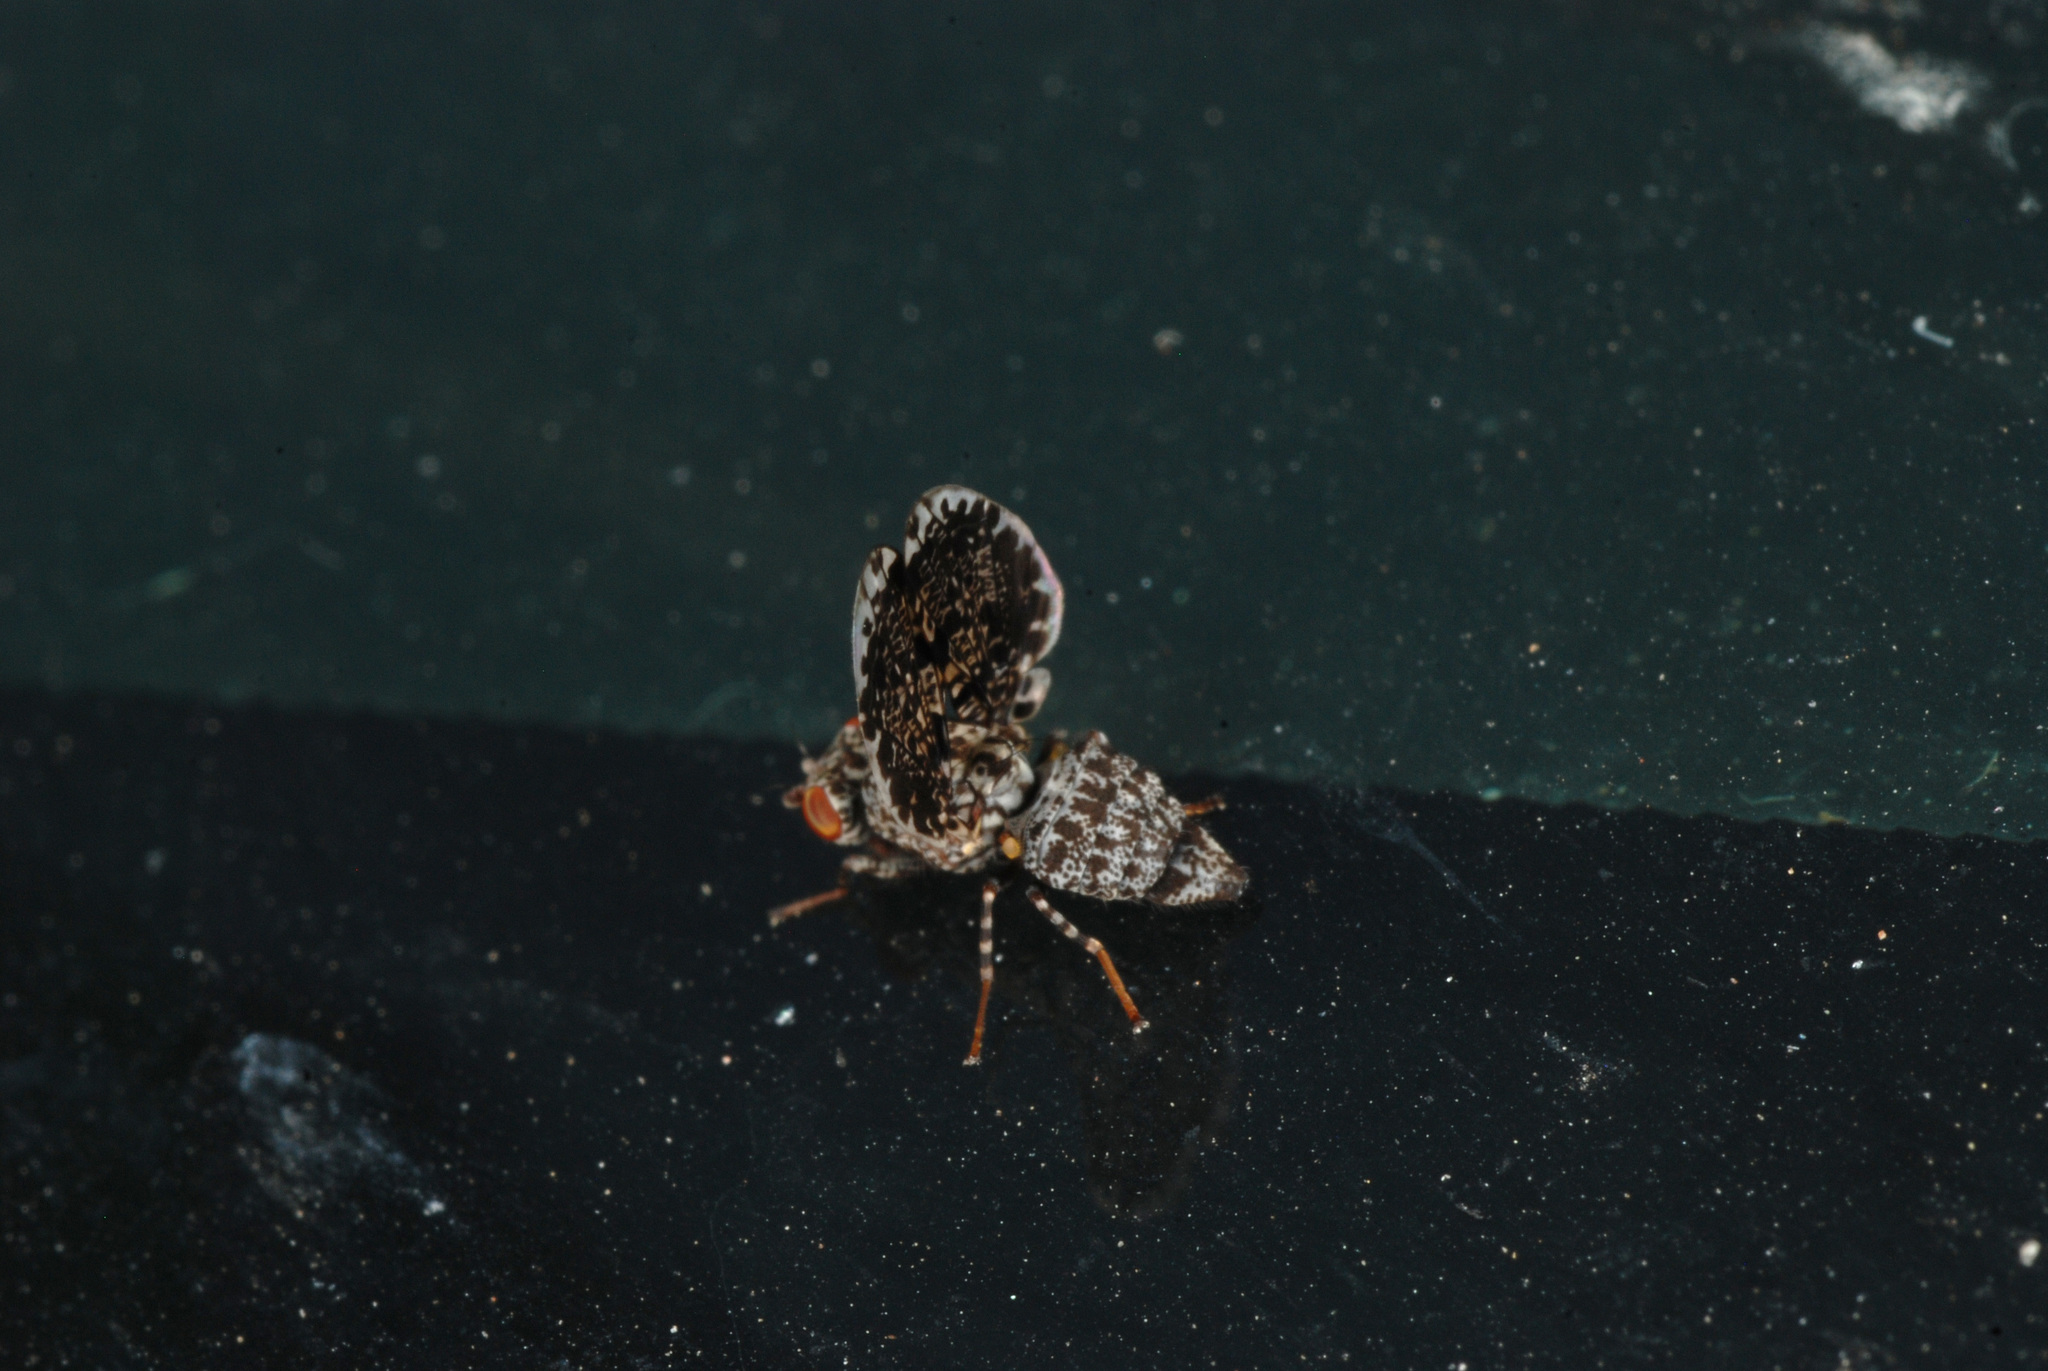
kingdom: Animalia
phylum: Arthropoda
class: Insecta
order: Diptera
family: Ulidiidae
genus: Callopistromyia
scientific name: Callopistromyia annulipes
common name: Peacock fly
